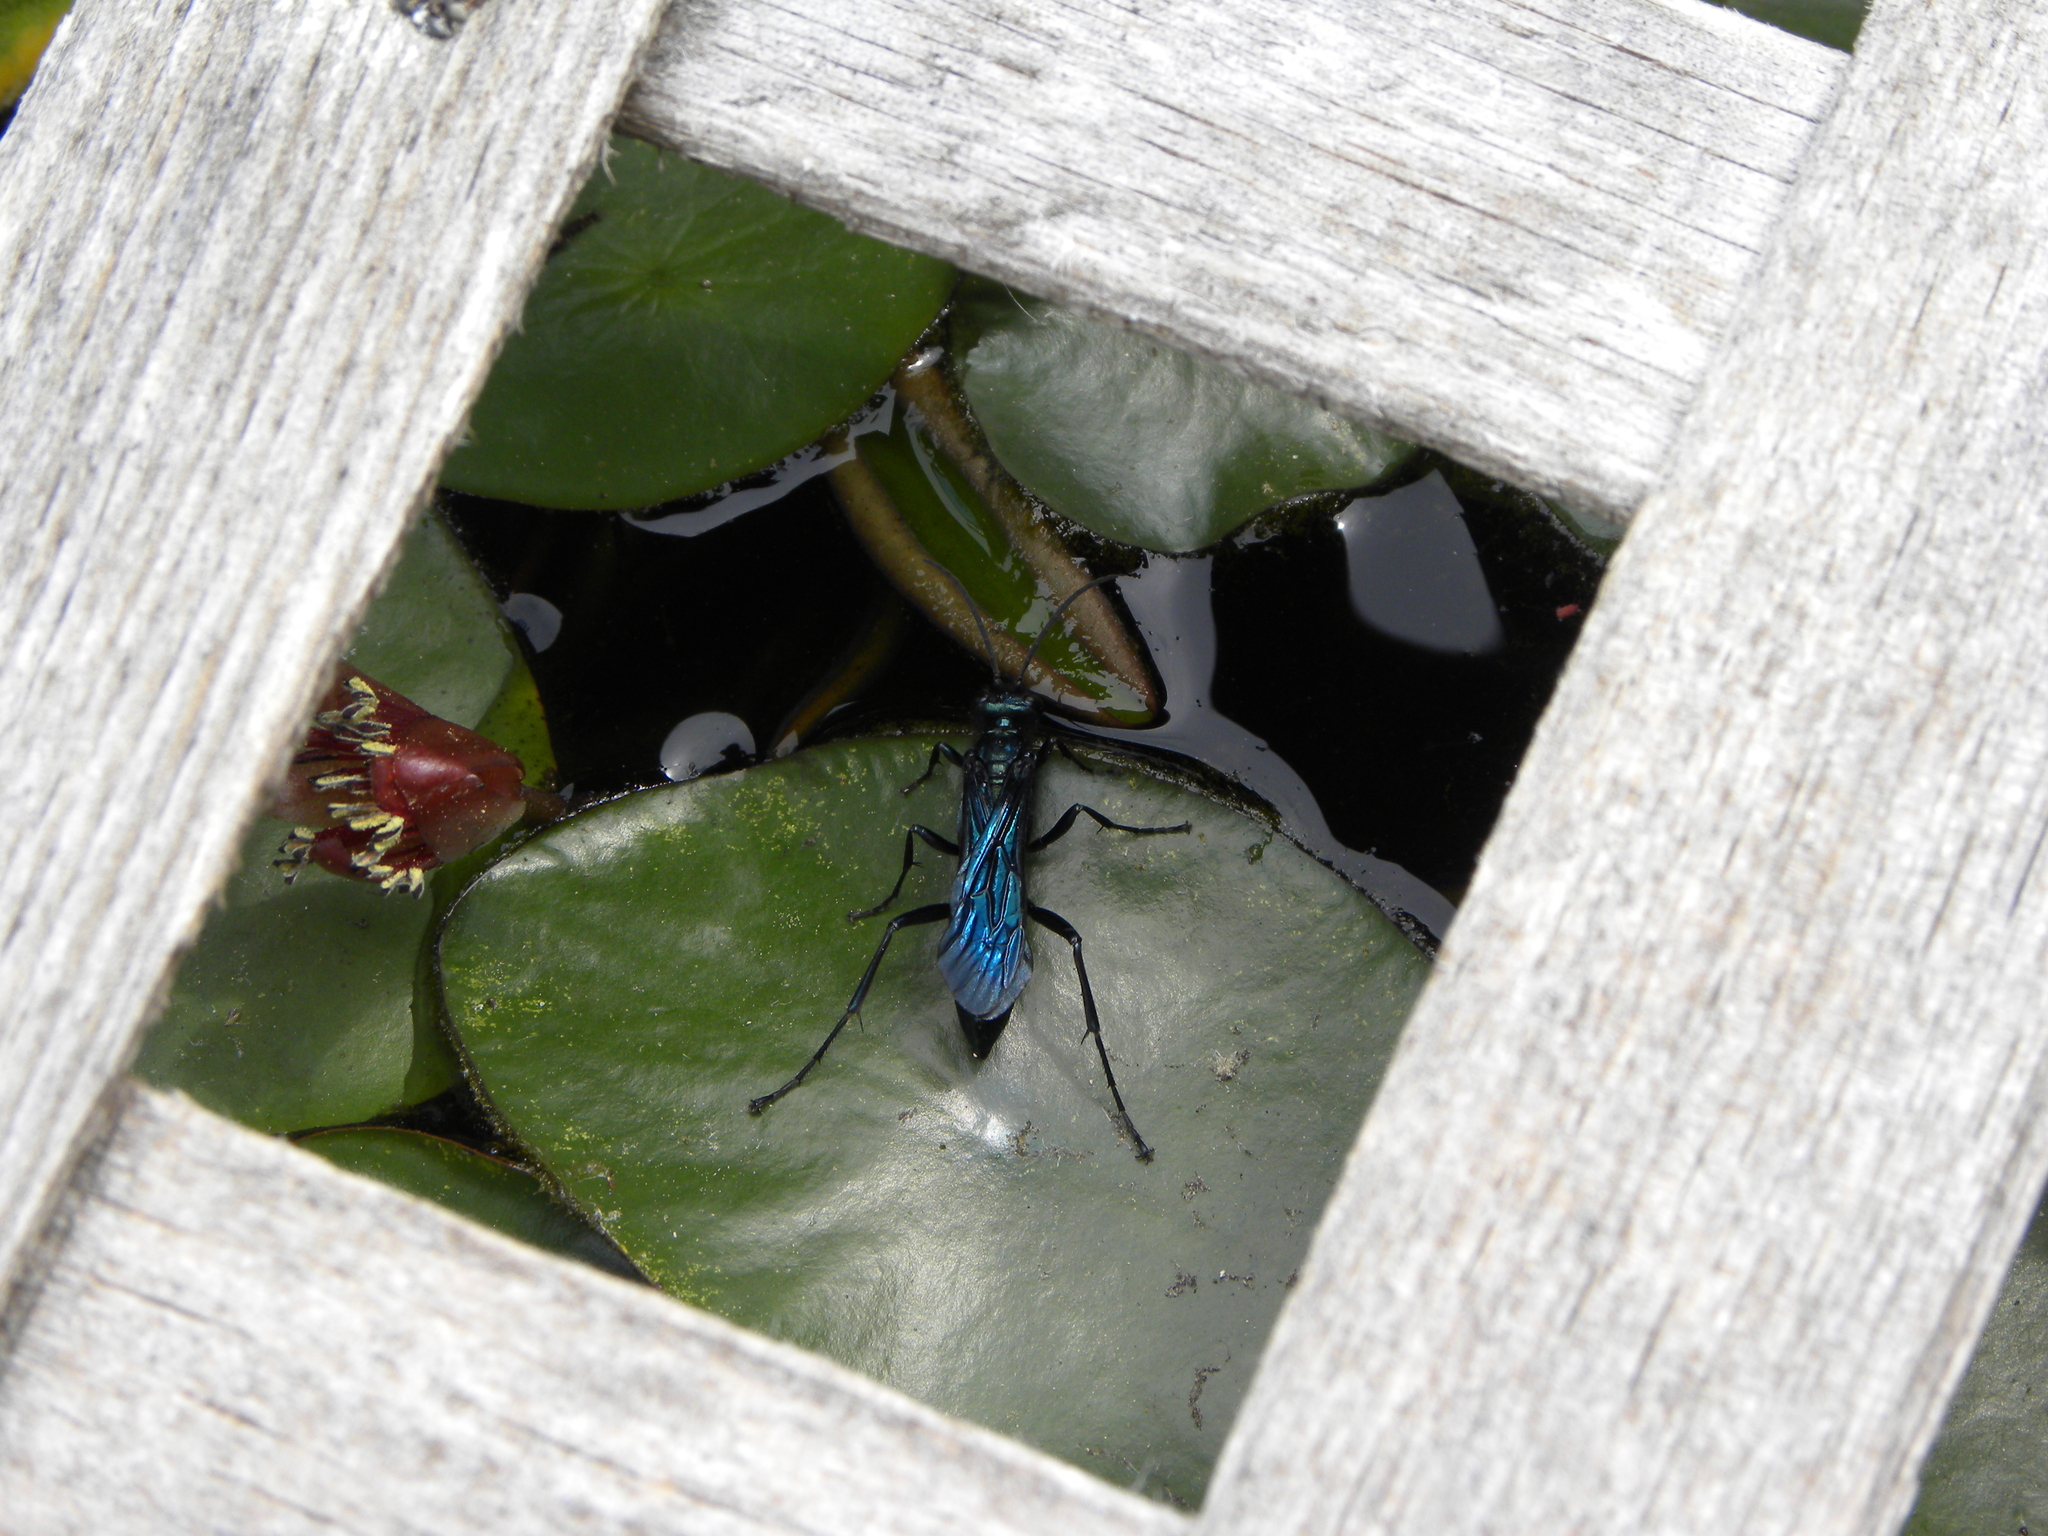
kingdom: Animalia
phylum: Arthropoda
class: Insecta
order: Hymenoptera
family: Sphecidae
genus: Chalybion
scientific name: Chalybion californicum
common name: Mud dauber
